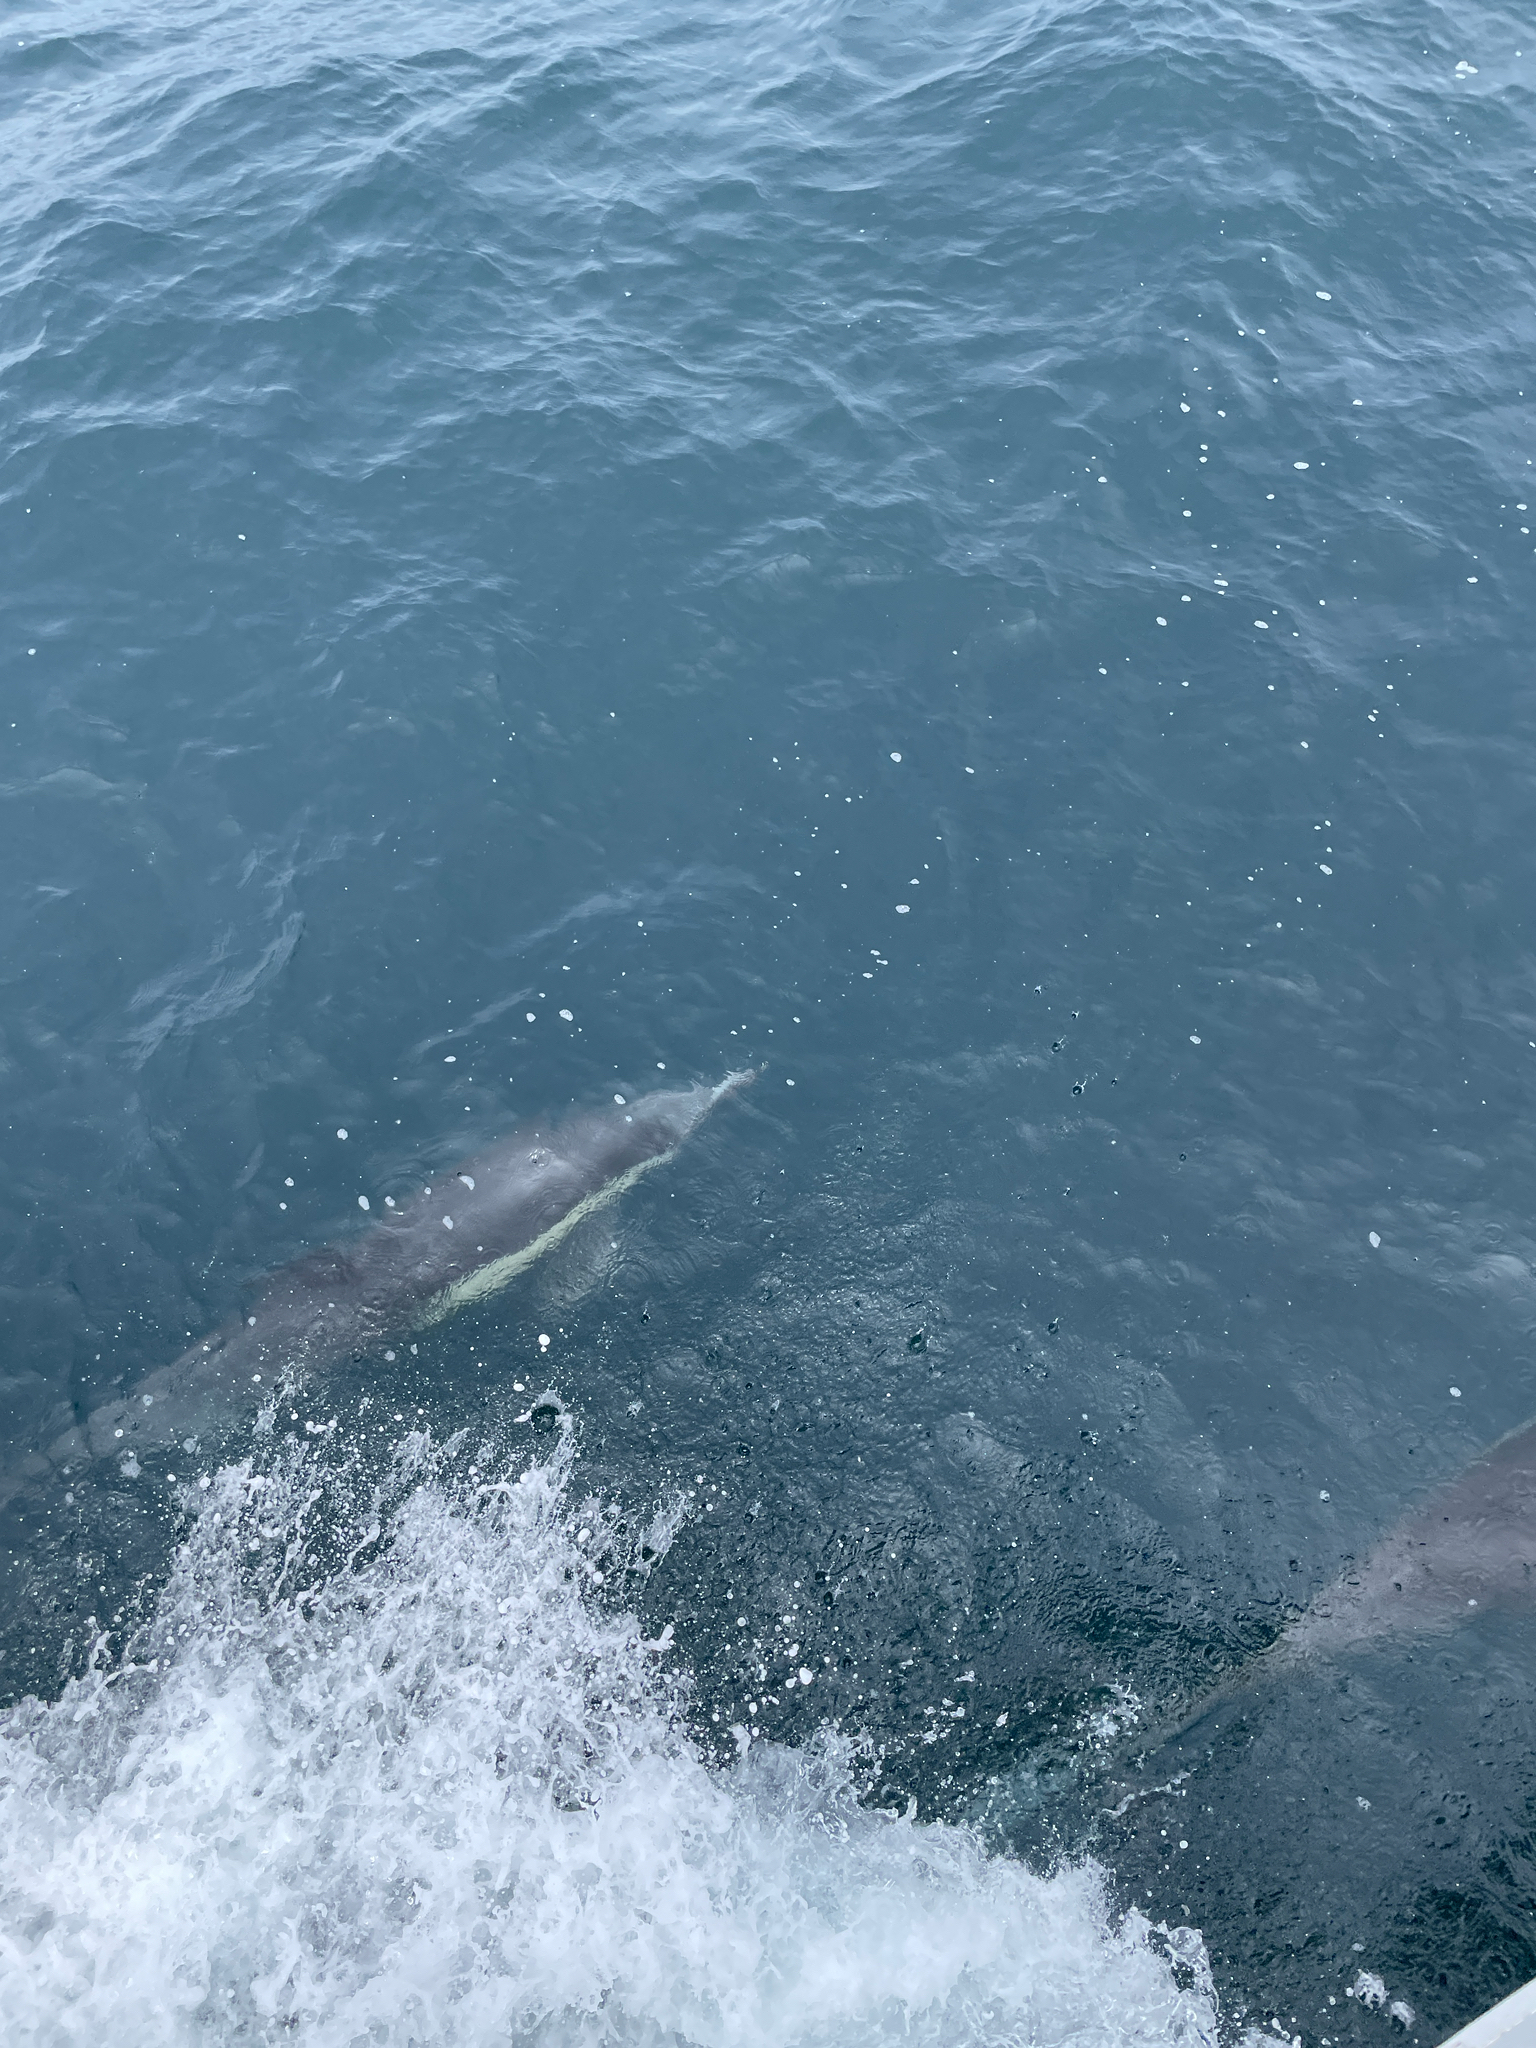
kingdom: Animalia
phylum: Chordata
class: Mammalia
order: Cetacea
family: Delphinidae
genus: Delphinus
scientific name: Delphinus delphis
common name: Common dolphin
